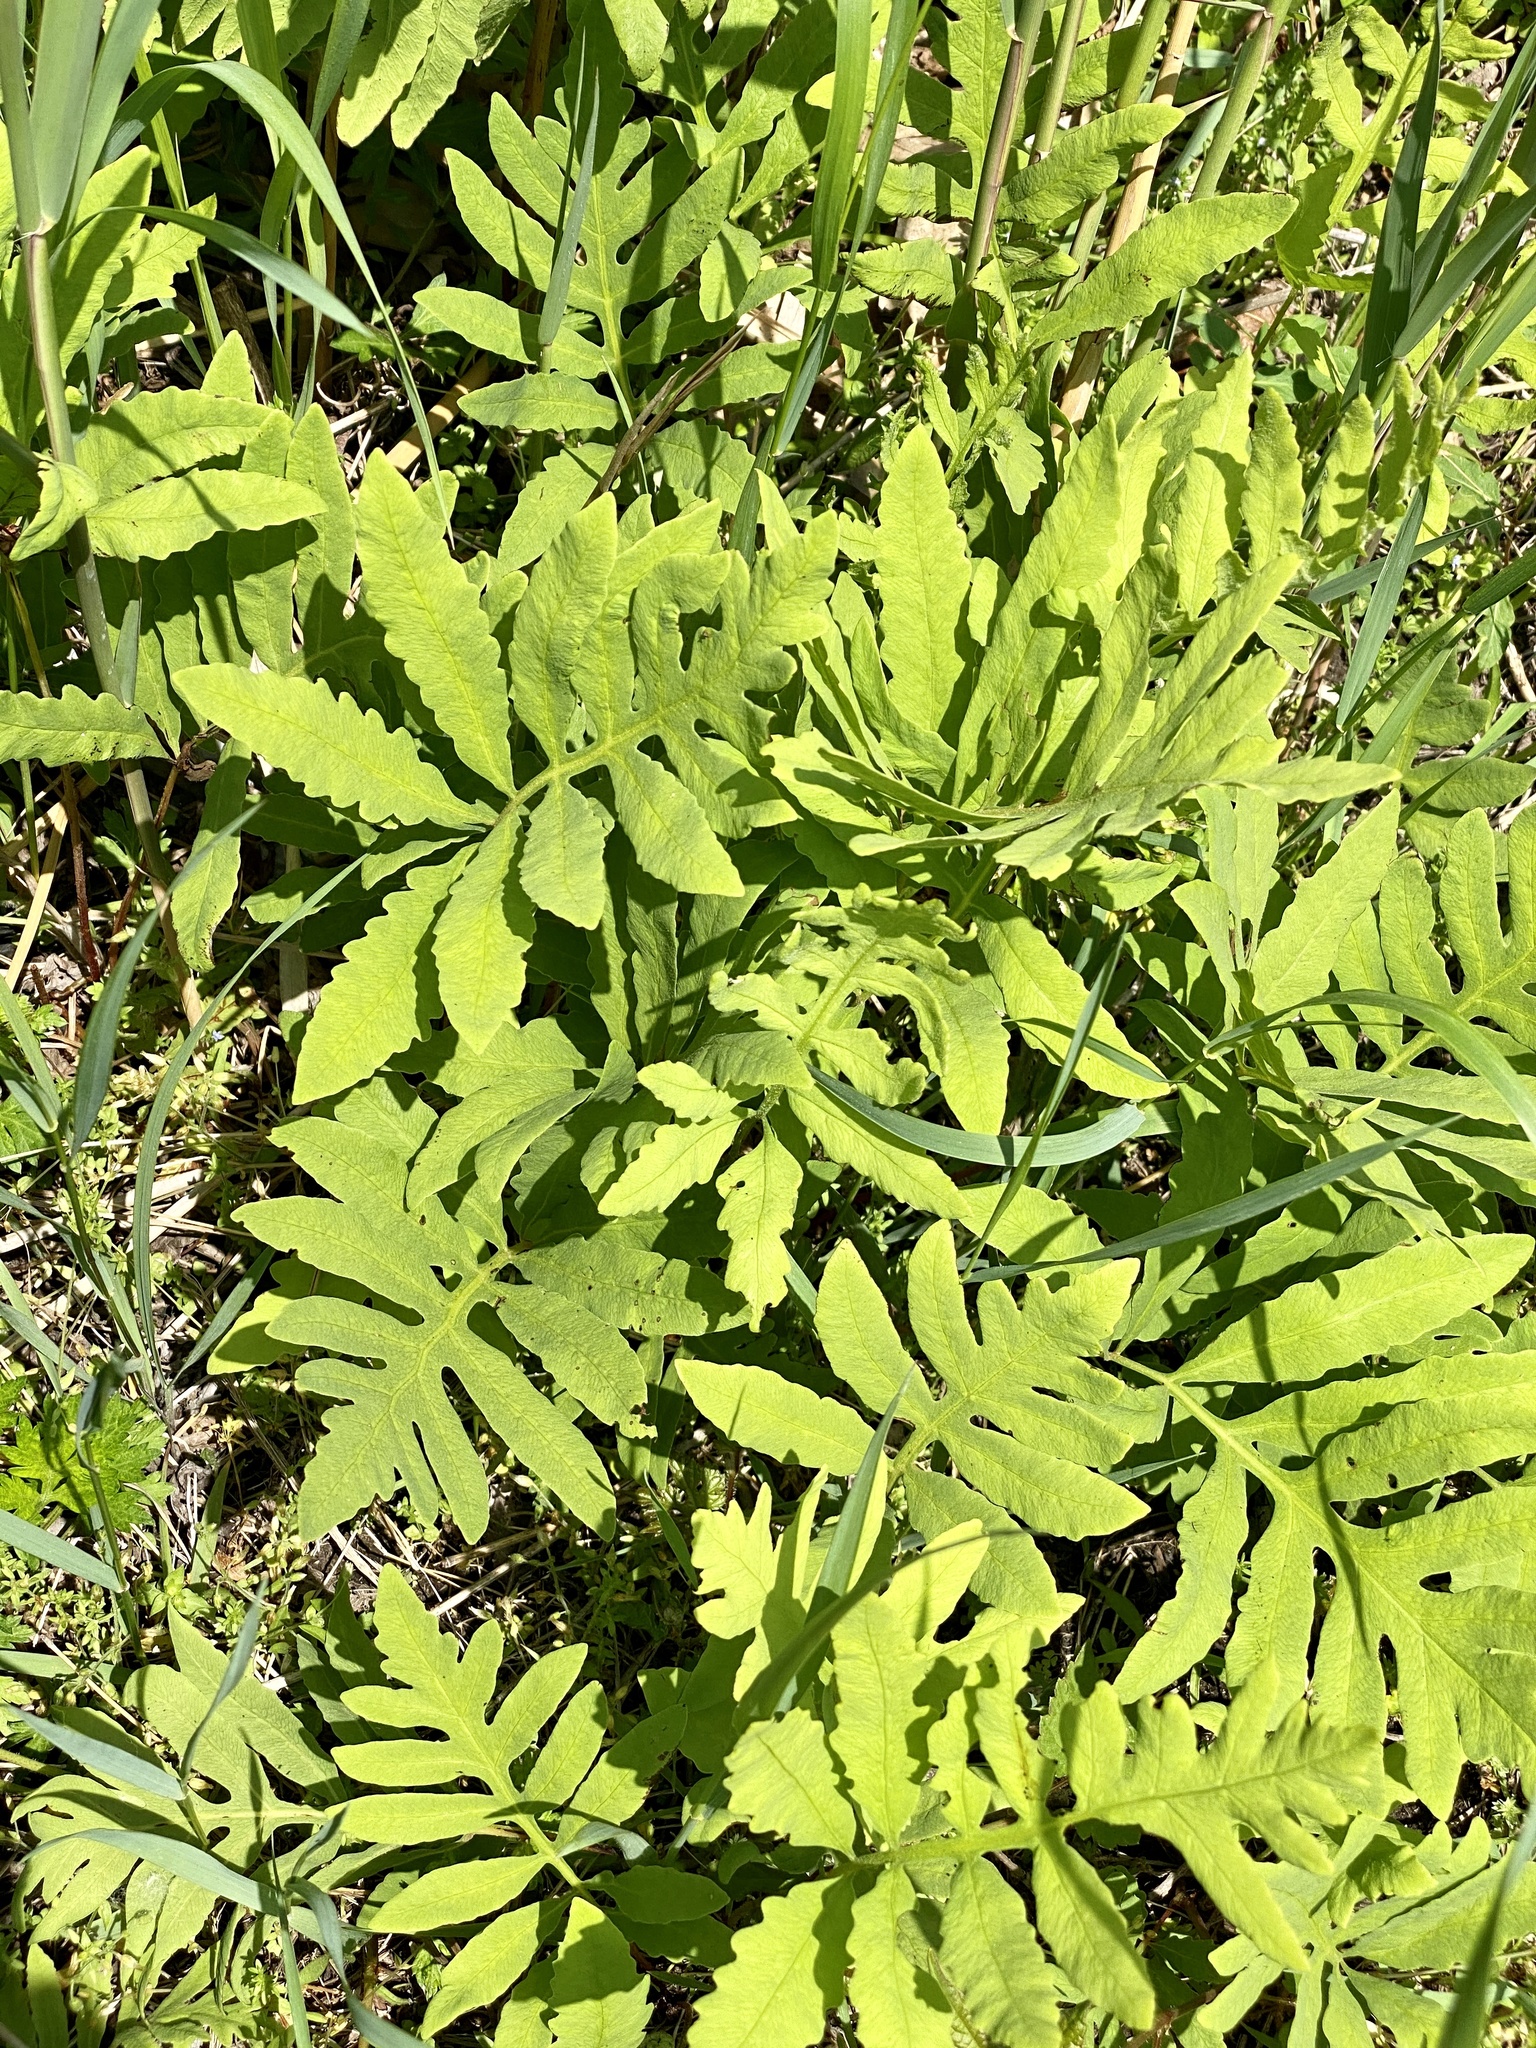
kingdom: Plantae
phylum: Tracheophyta
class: Polypodiopsida
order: Polypodiales
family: Onocleaceae
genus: Onoclea
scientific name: Onoclea sensibilis
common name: Sensitive fern
